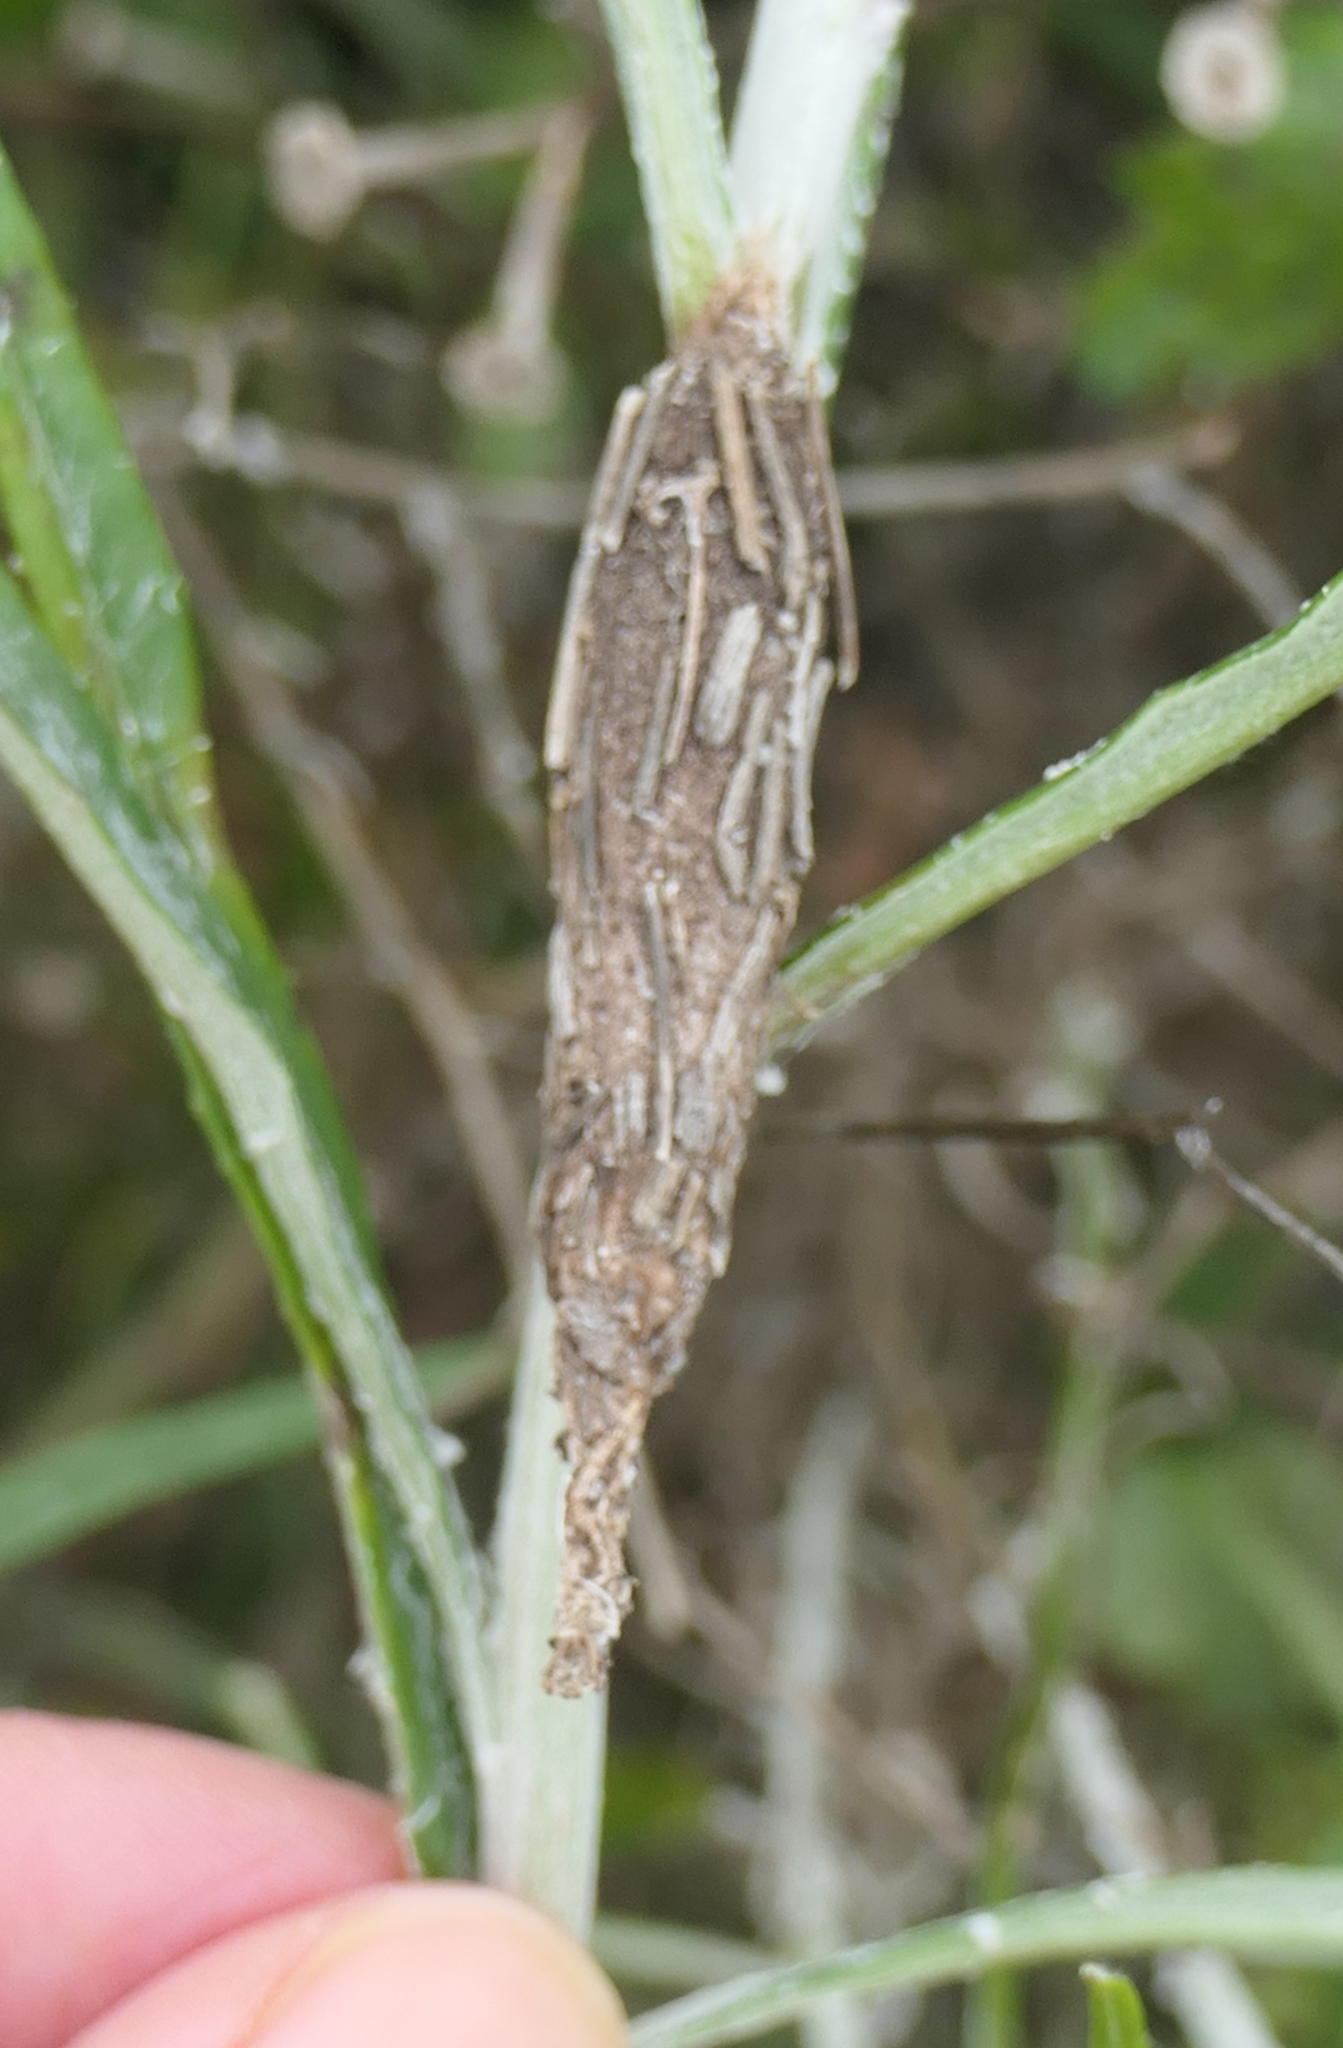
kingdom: Animalia
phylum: Arthropoda
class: Insecta
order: Lepidoptera
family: Psychidae
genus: Liothula
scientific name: Liothula omnivora
